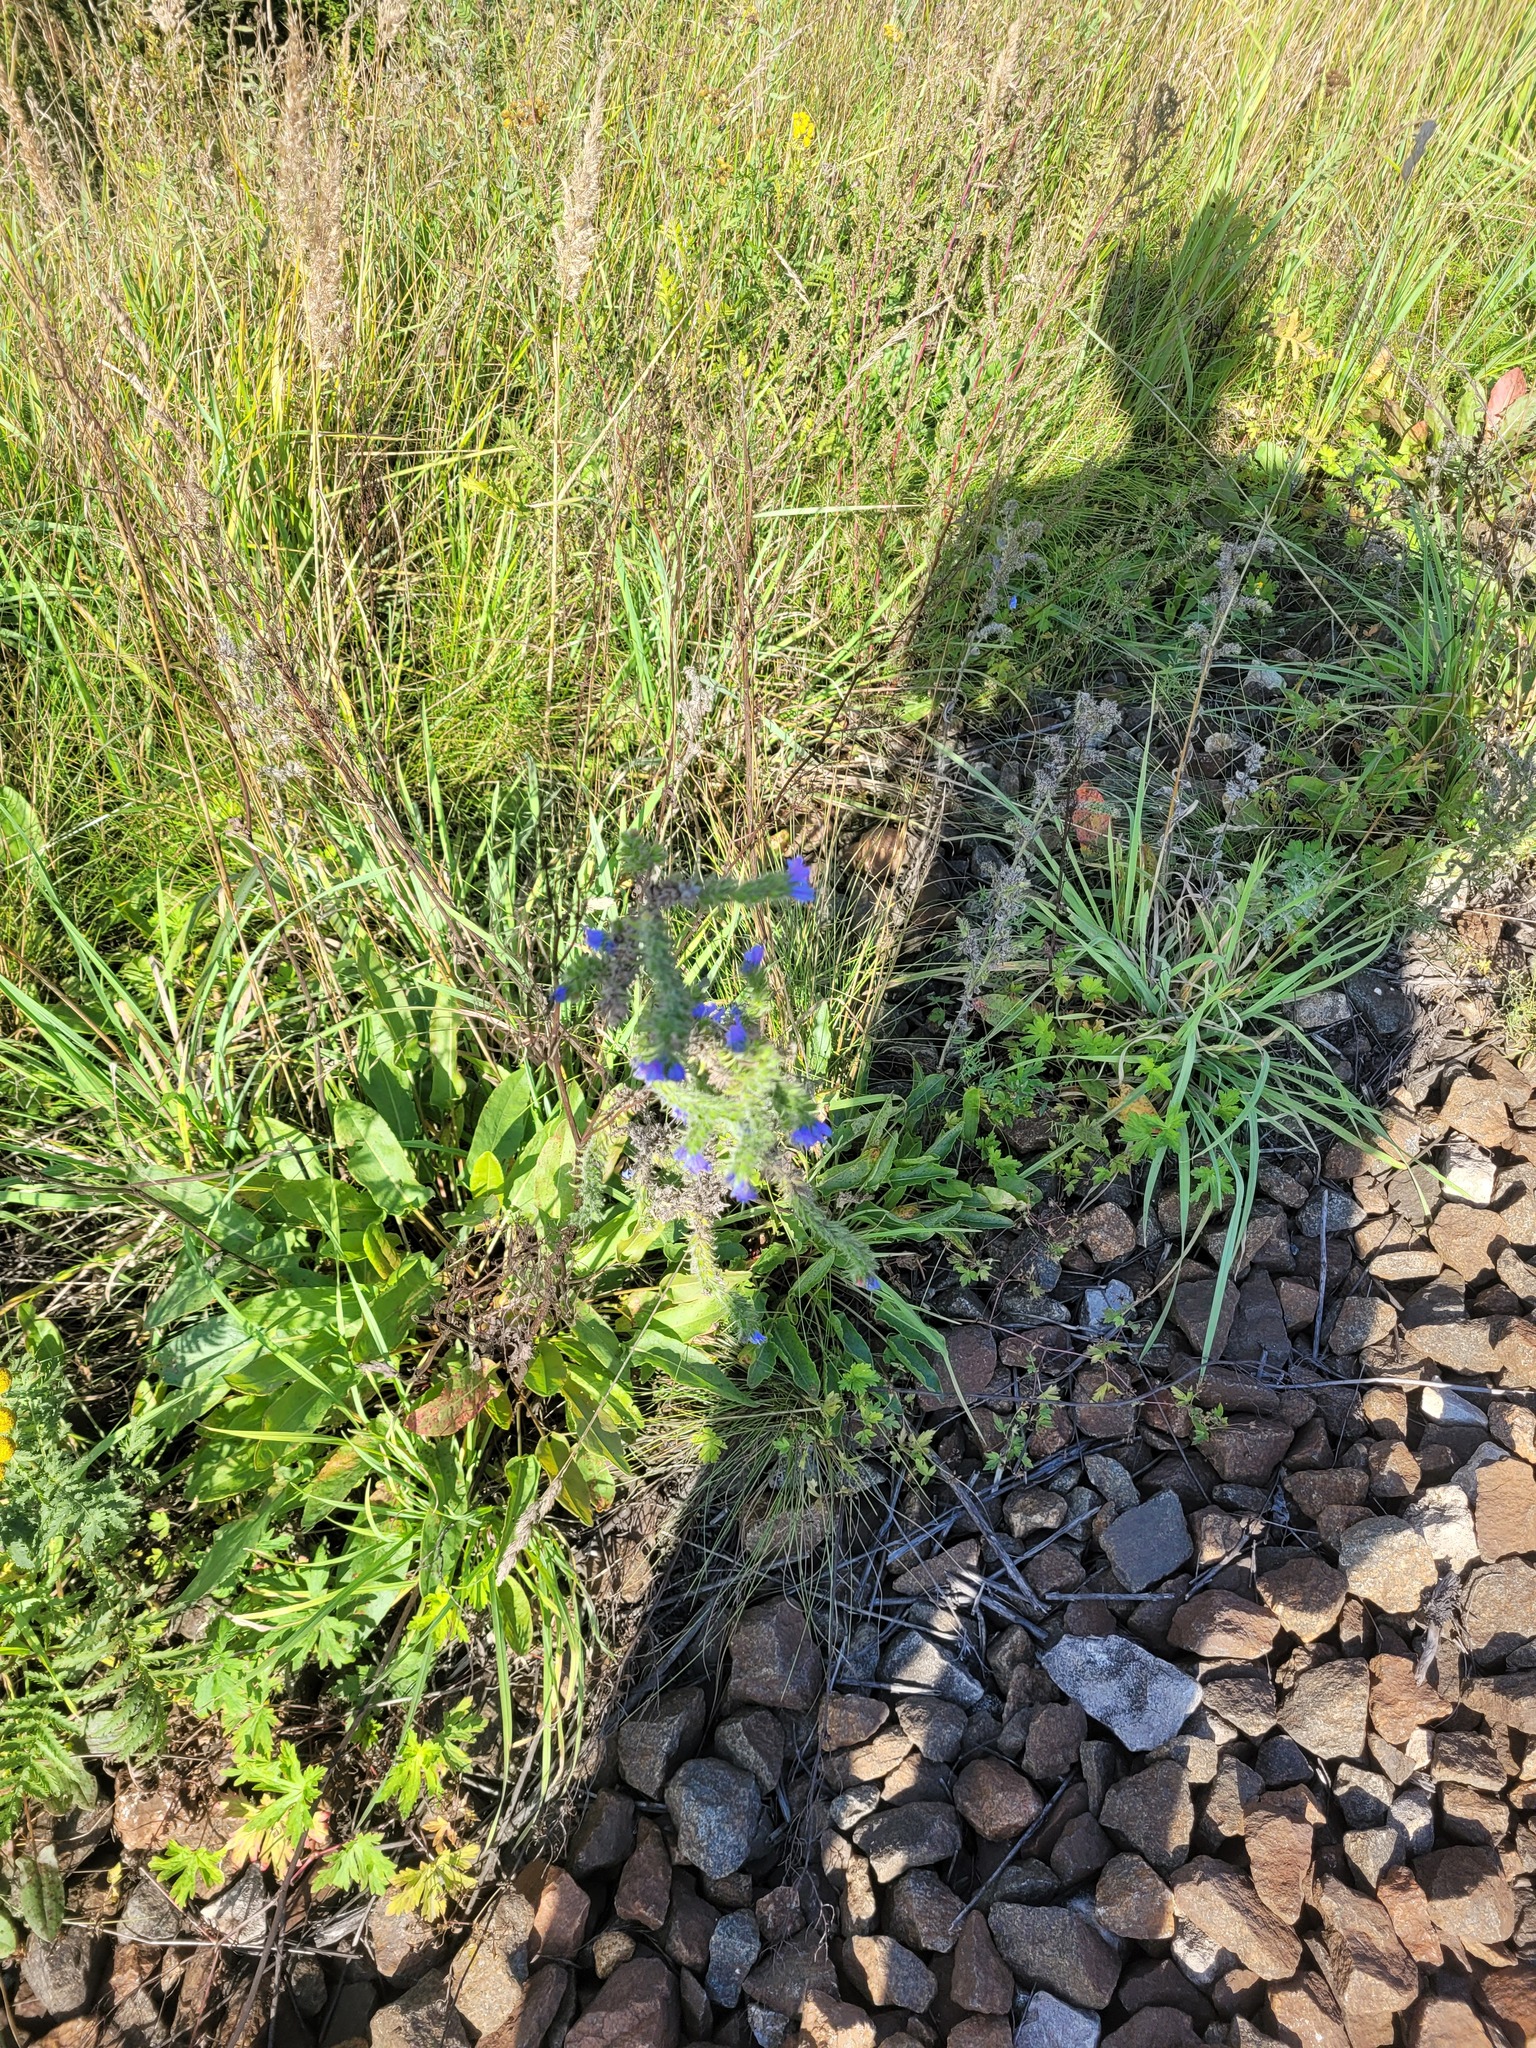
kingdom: Plantae
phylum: Tracheophyta
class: Magnoliopsida
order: Boraginales
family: Boraginaceae
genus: Echium
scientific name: Echium vulgare
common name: Common viper's bugloss
